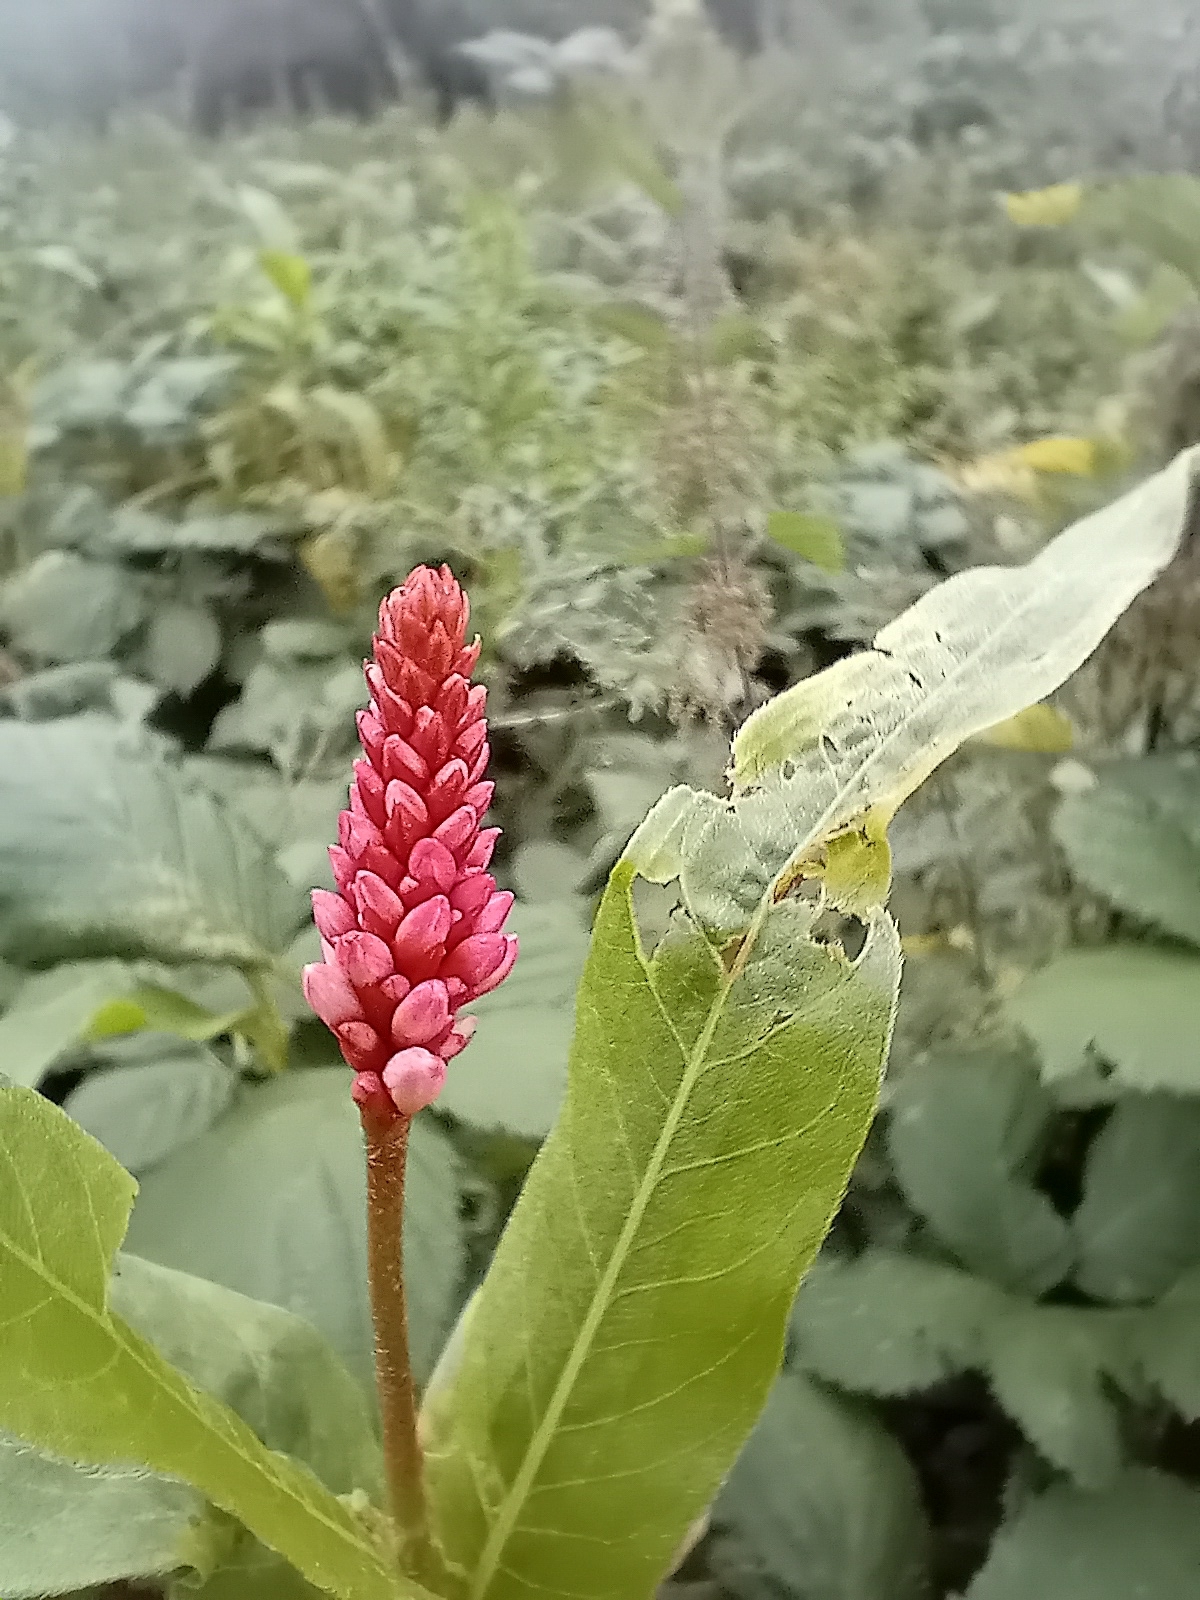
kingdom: Plantae
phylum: Tracheophyta
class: Magnoliopsida
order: Caryophyllales
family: Polygonaceae
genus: Persicaria
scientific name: Persicaria amphibia
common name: Amphibious bistort
